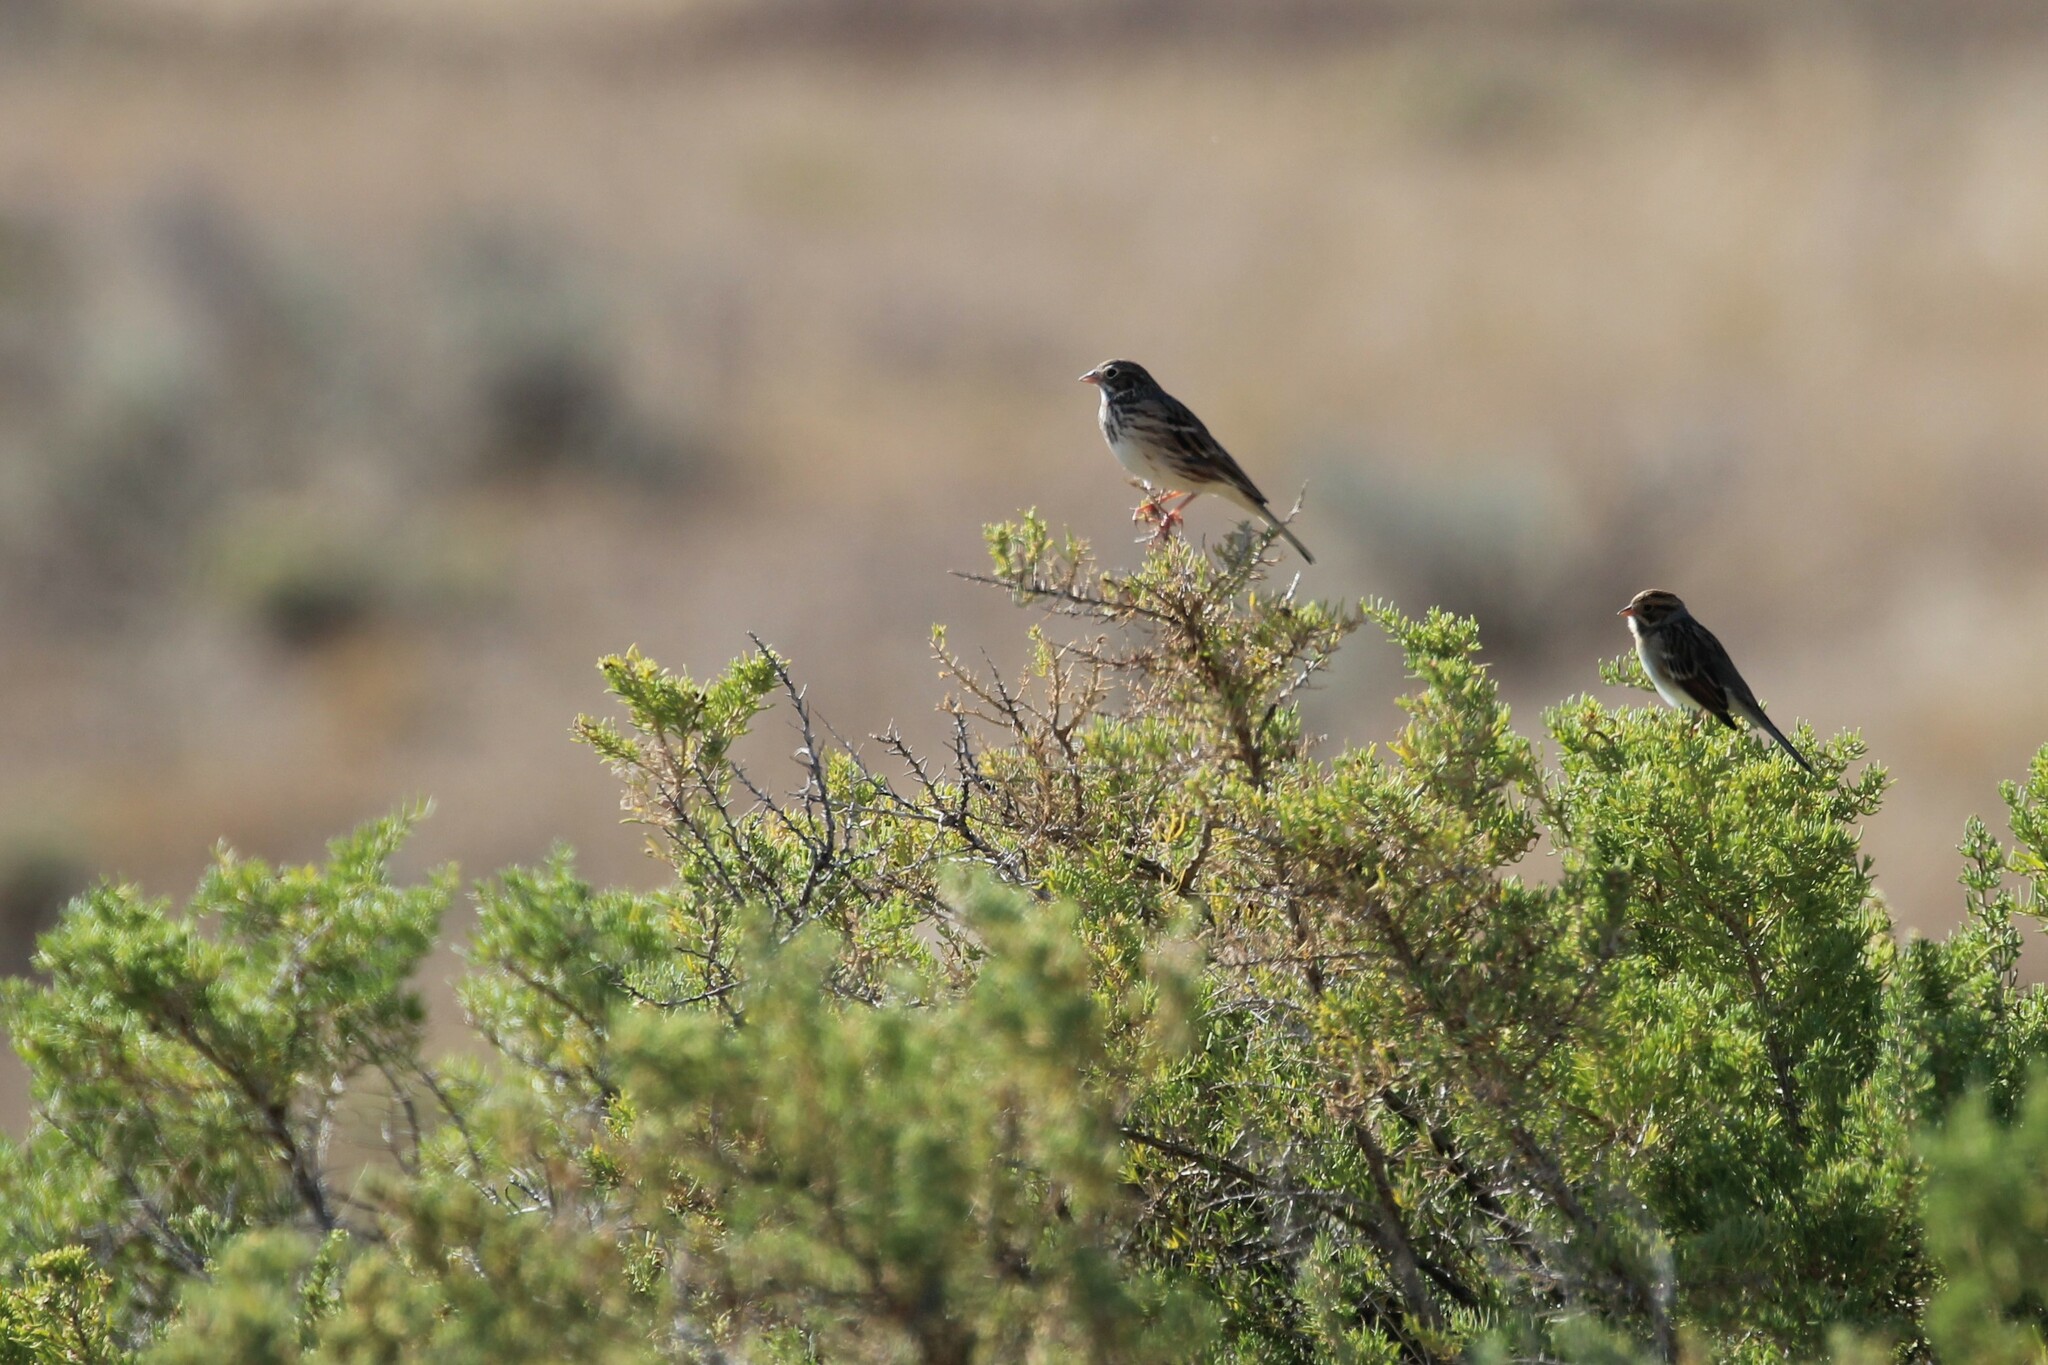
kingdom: Animalia
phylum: Chordata
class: Aves
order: Passeriformes
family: Passerellidae
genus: Pooecetes
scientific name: Pooecetes gramineus
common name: Vesper sparrow
